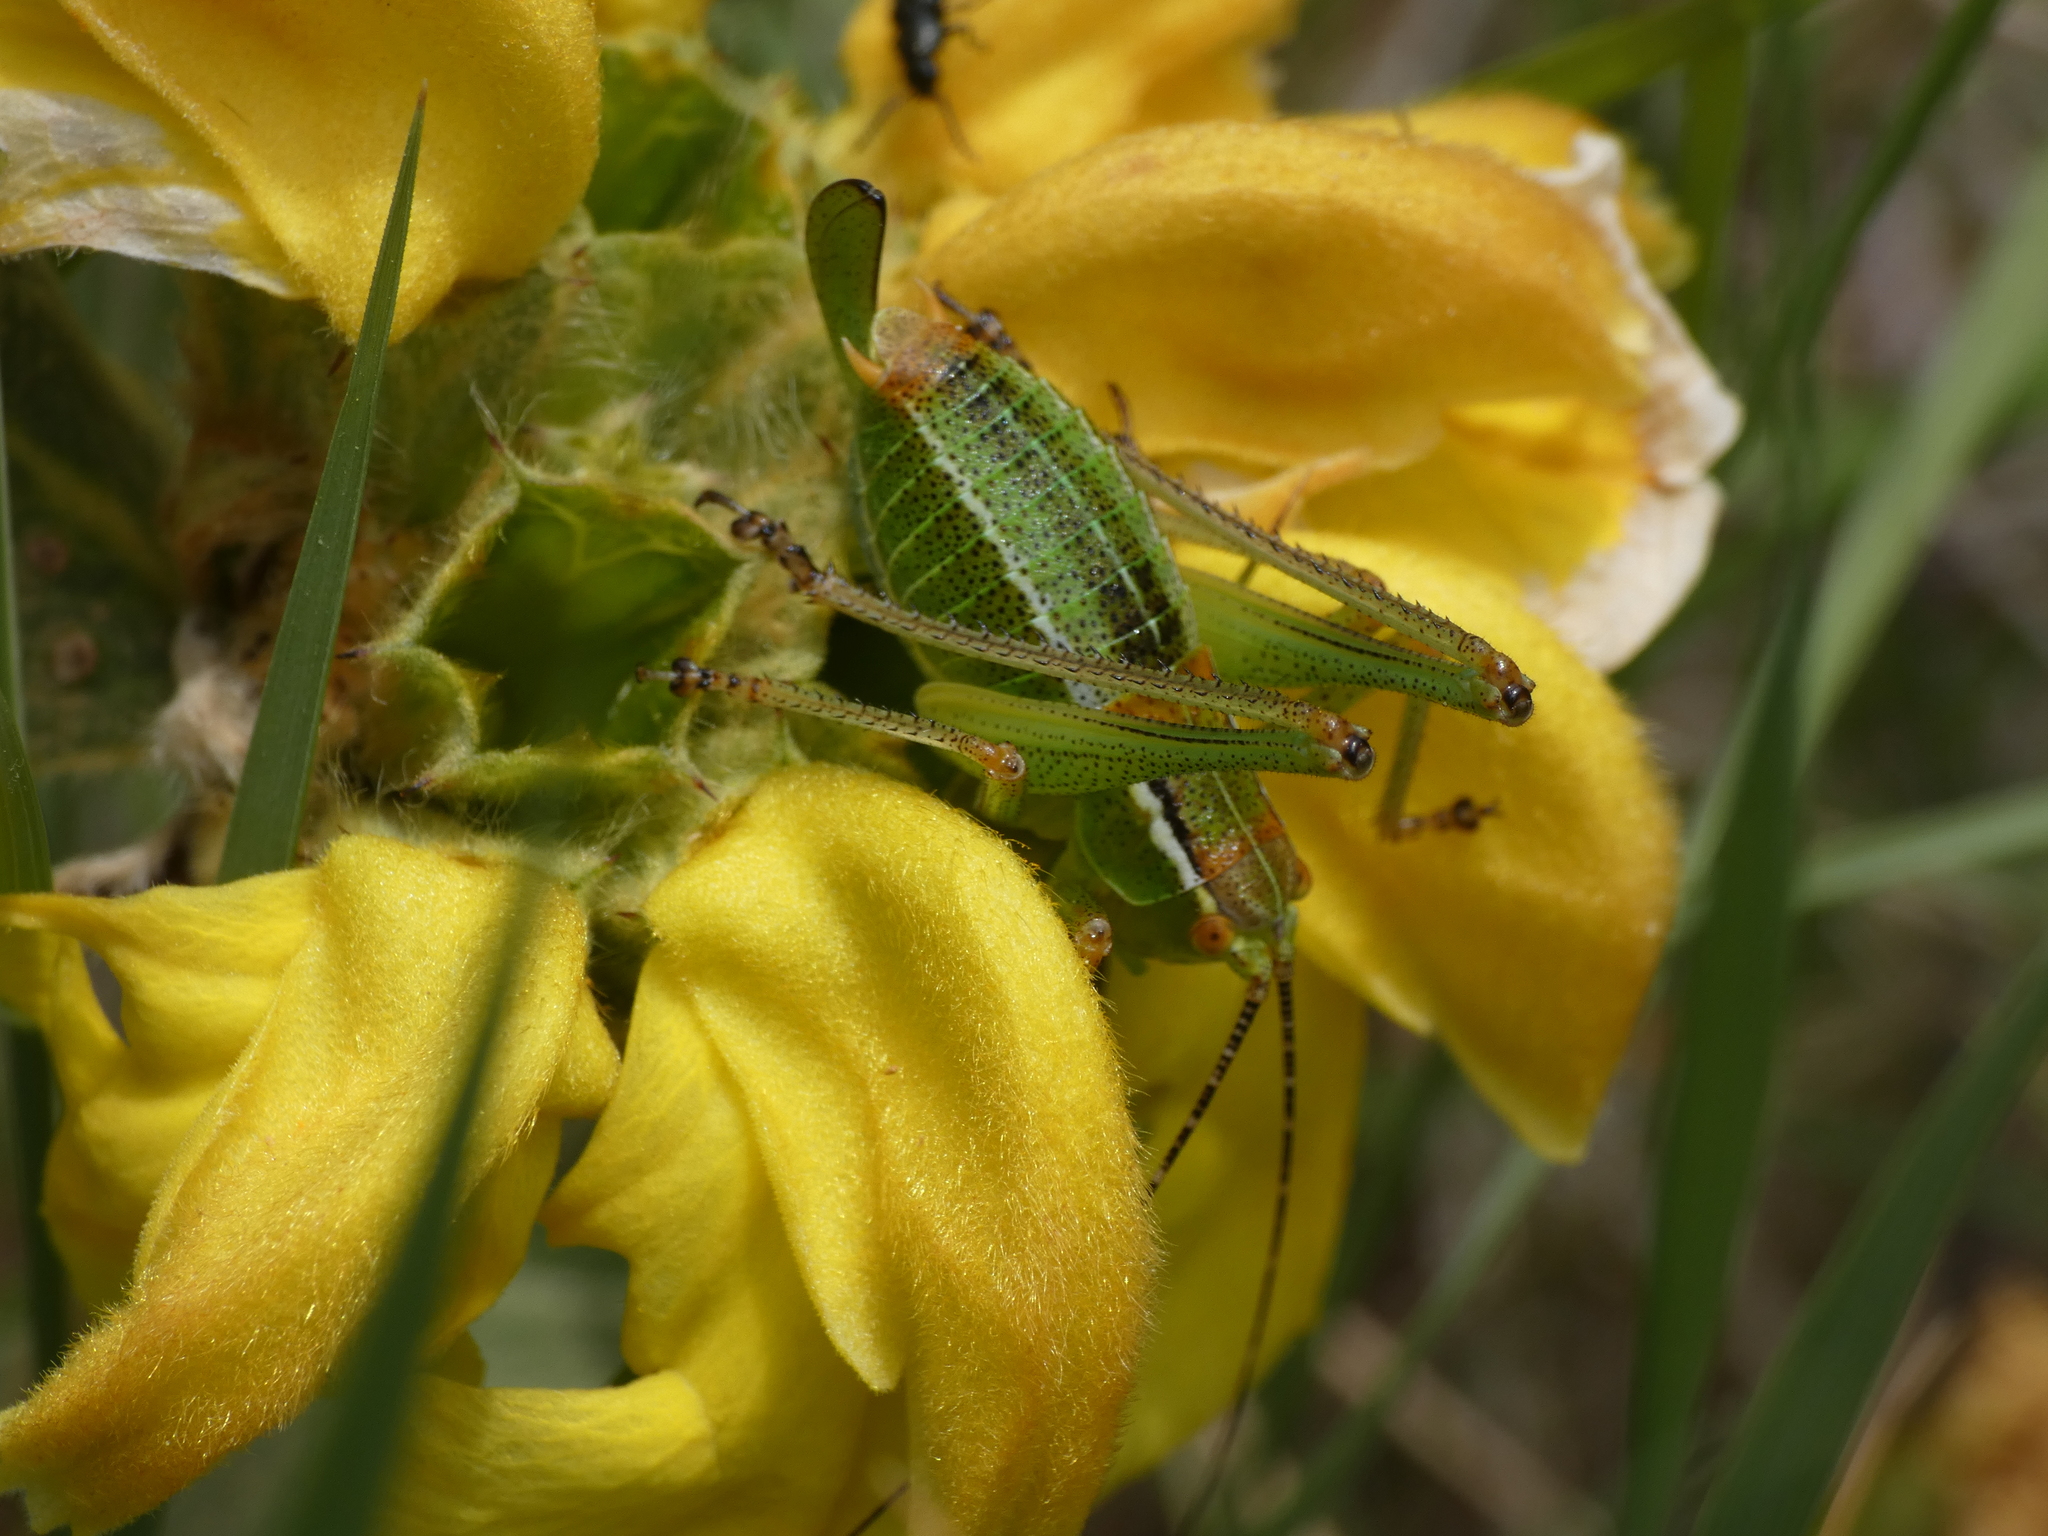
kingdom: Animalia
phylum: Arthropoda
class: Insecta
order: Orthoptera
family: Tettigoniidae
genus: Poecilimon
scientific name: Poecilimon laevissimus
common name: Transionian bright bush-cricket
